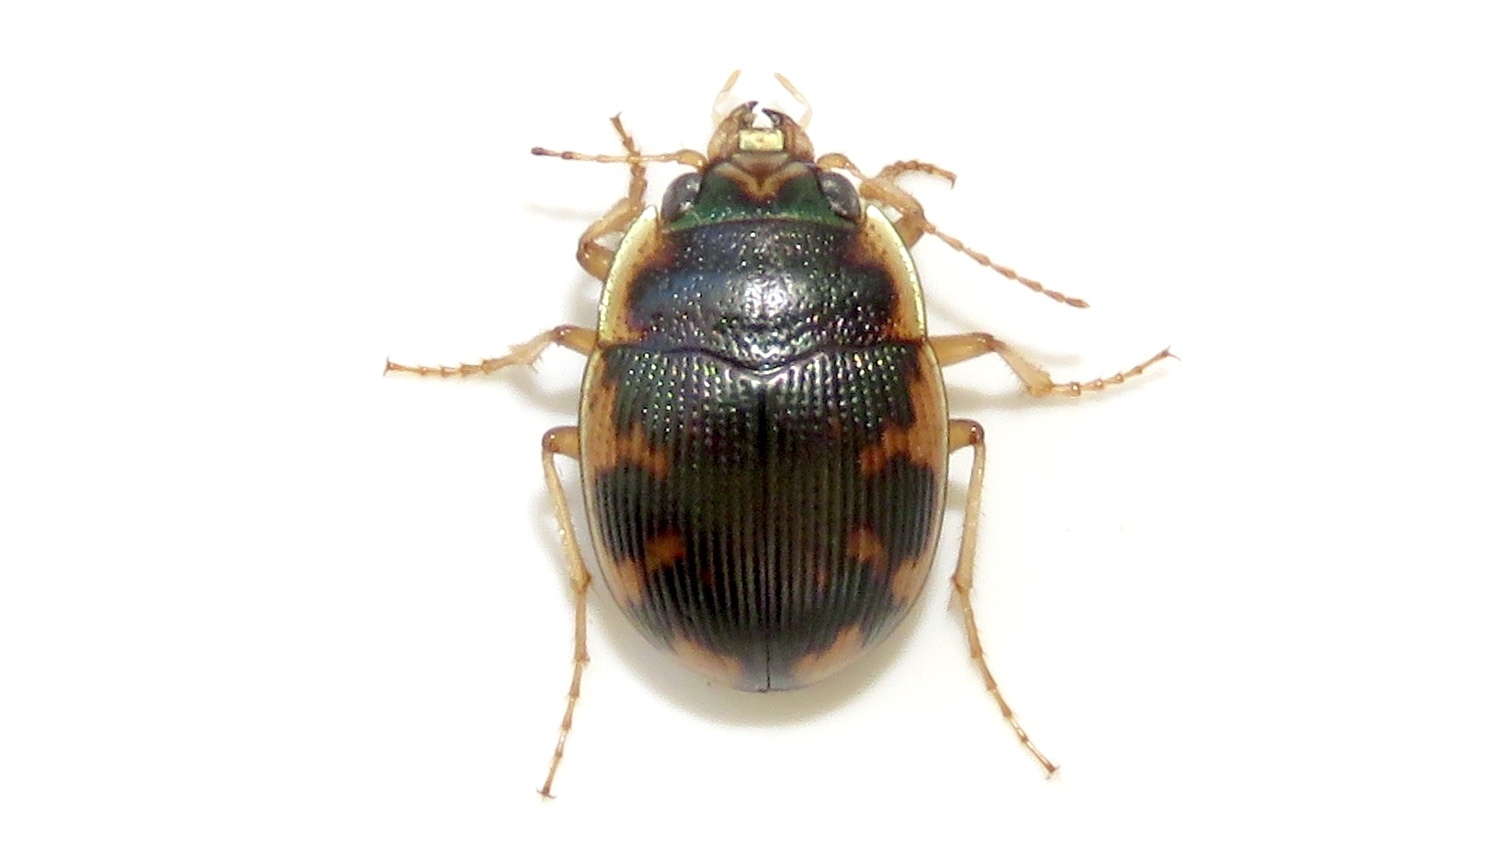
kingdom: Animalia
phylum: Arthropoda
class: Insecta
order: Coleoptera
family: Carabidae
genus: Omophron
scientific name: Omophron americanum
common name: American round sand beetle
